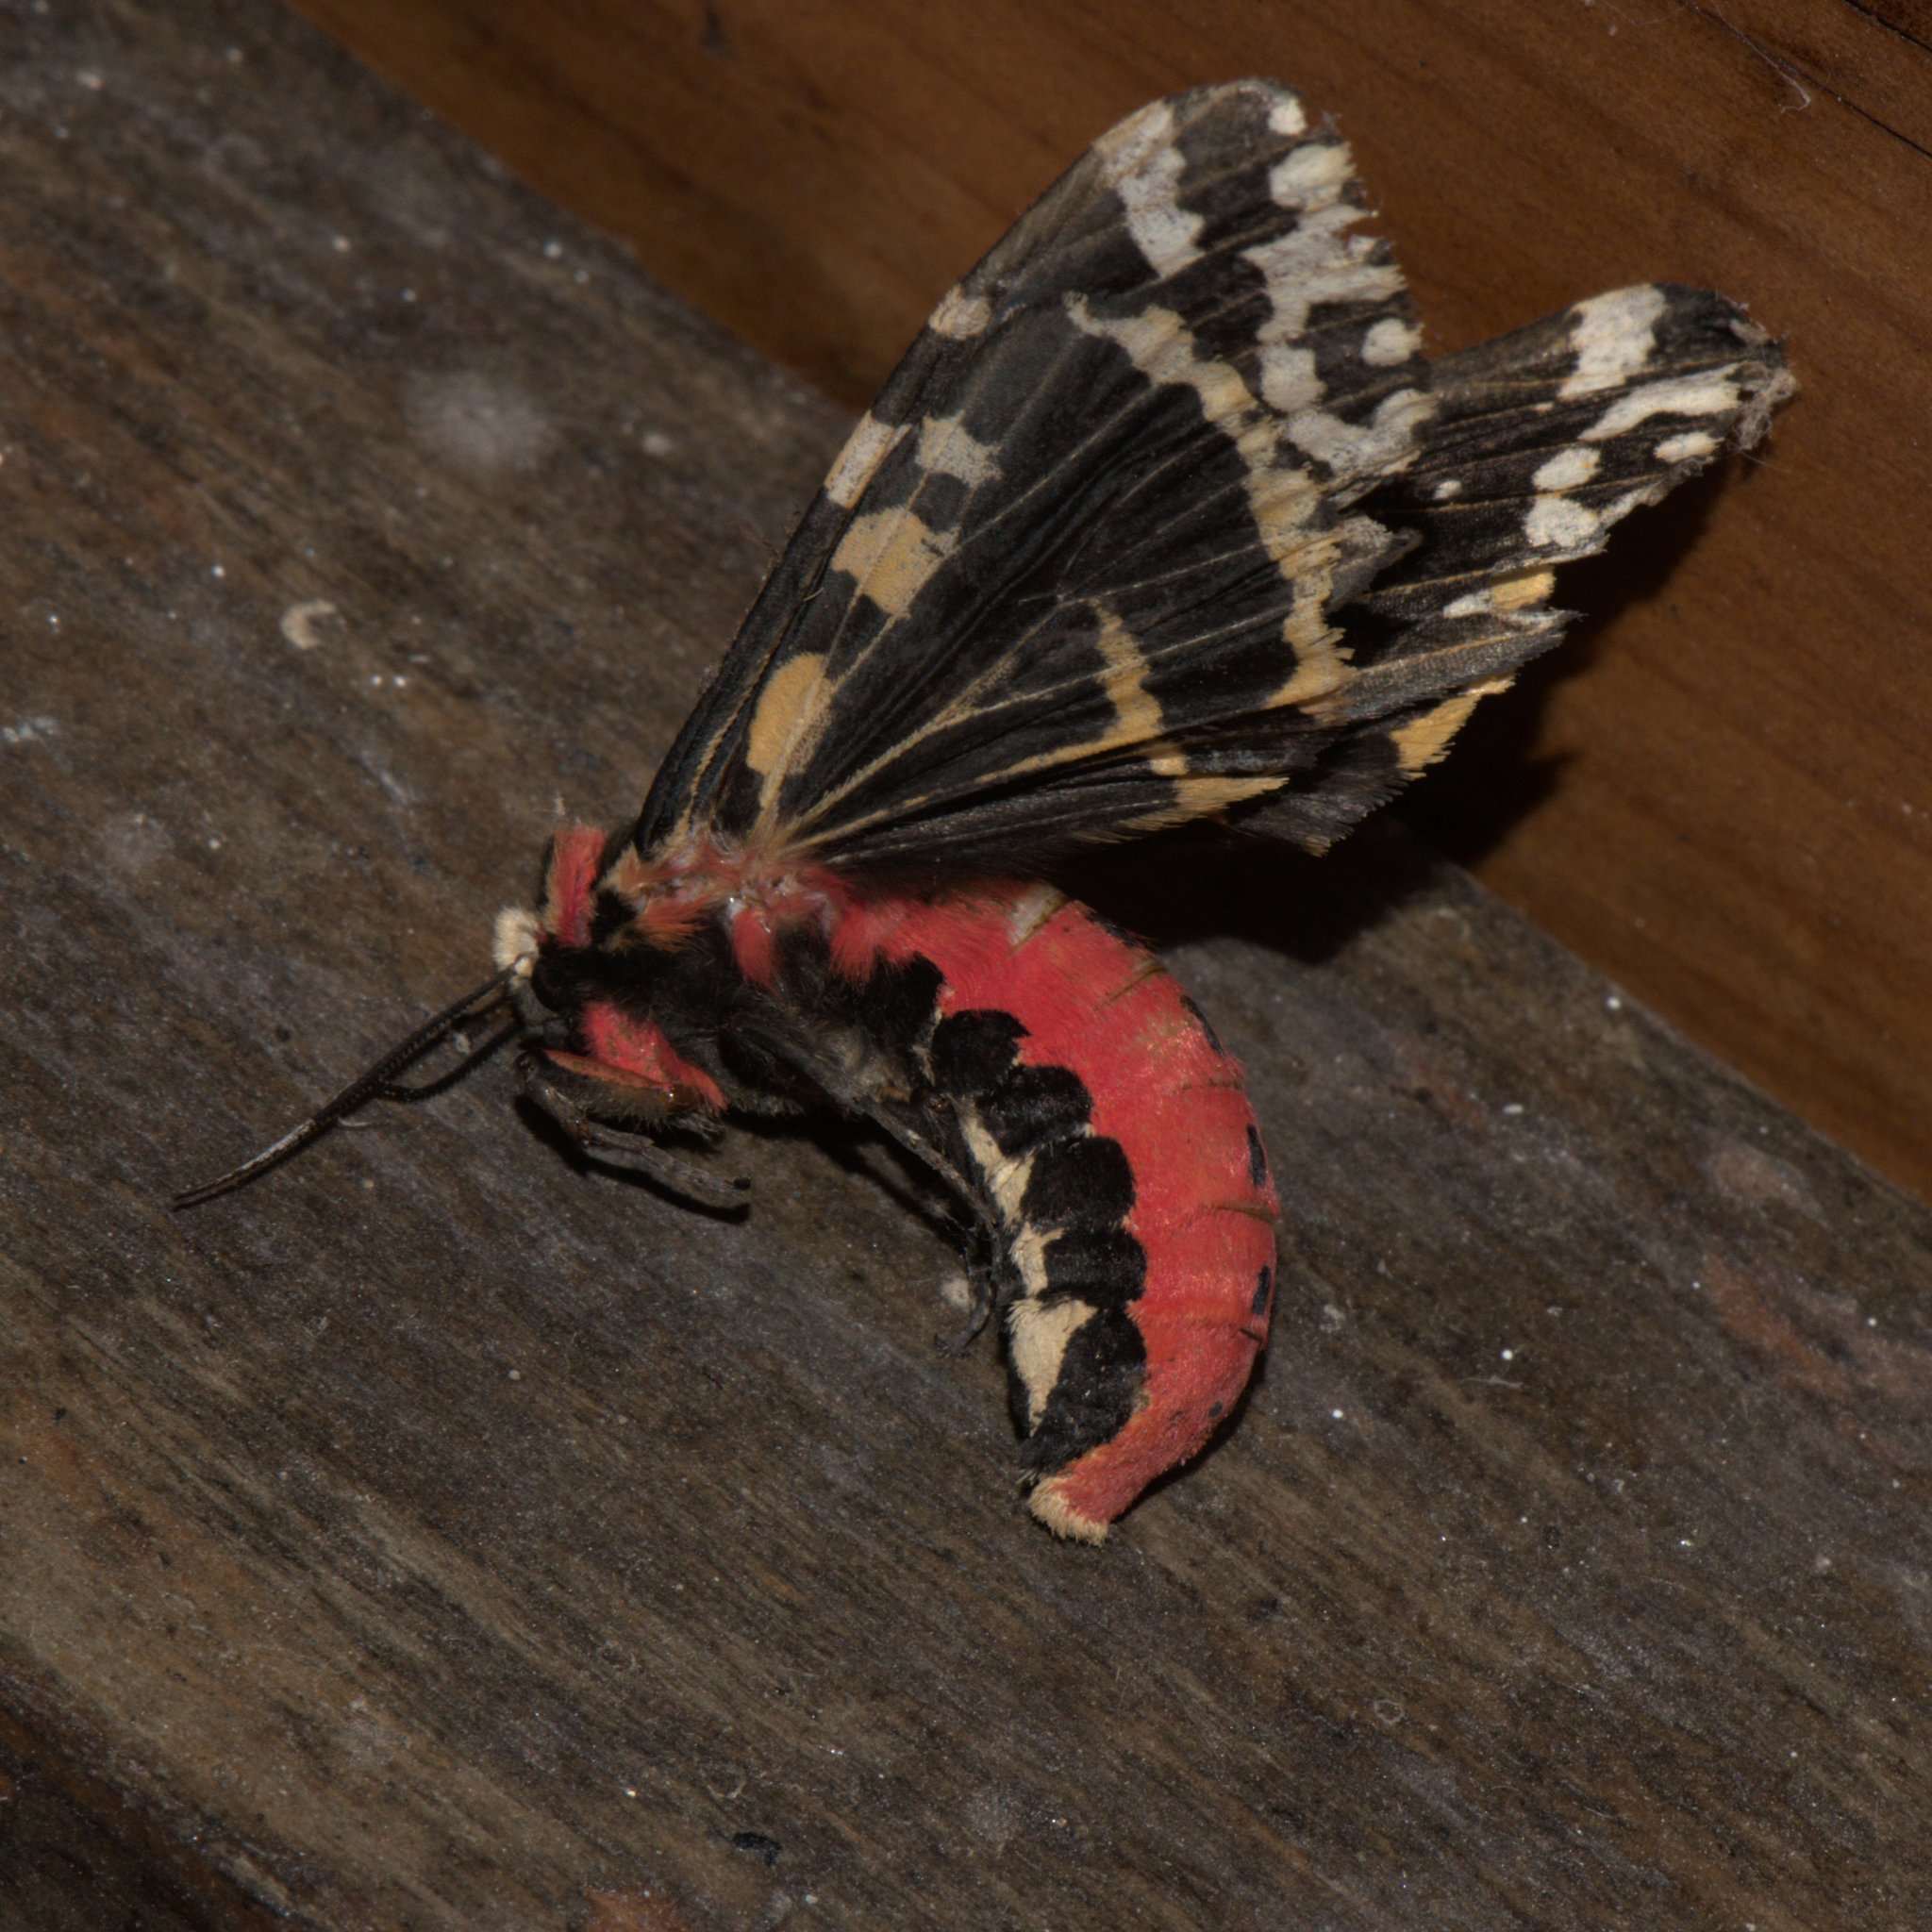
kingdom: Animalia
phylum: Arthropoda
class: Insecta
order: Lepidoptera
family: Erebidae
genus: Alphaea
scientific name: Alphaea imbuta
